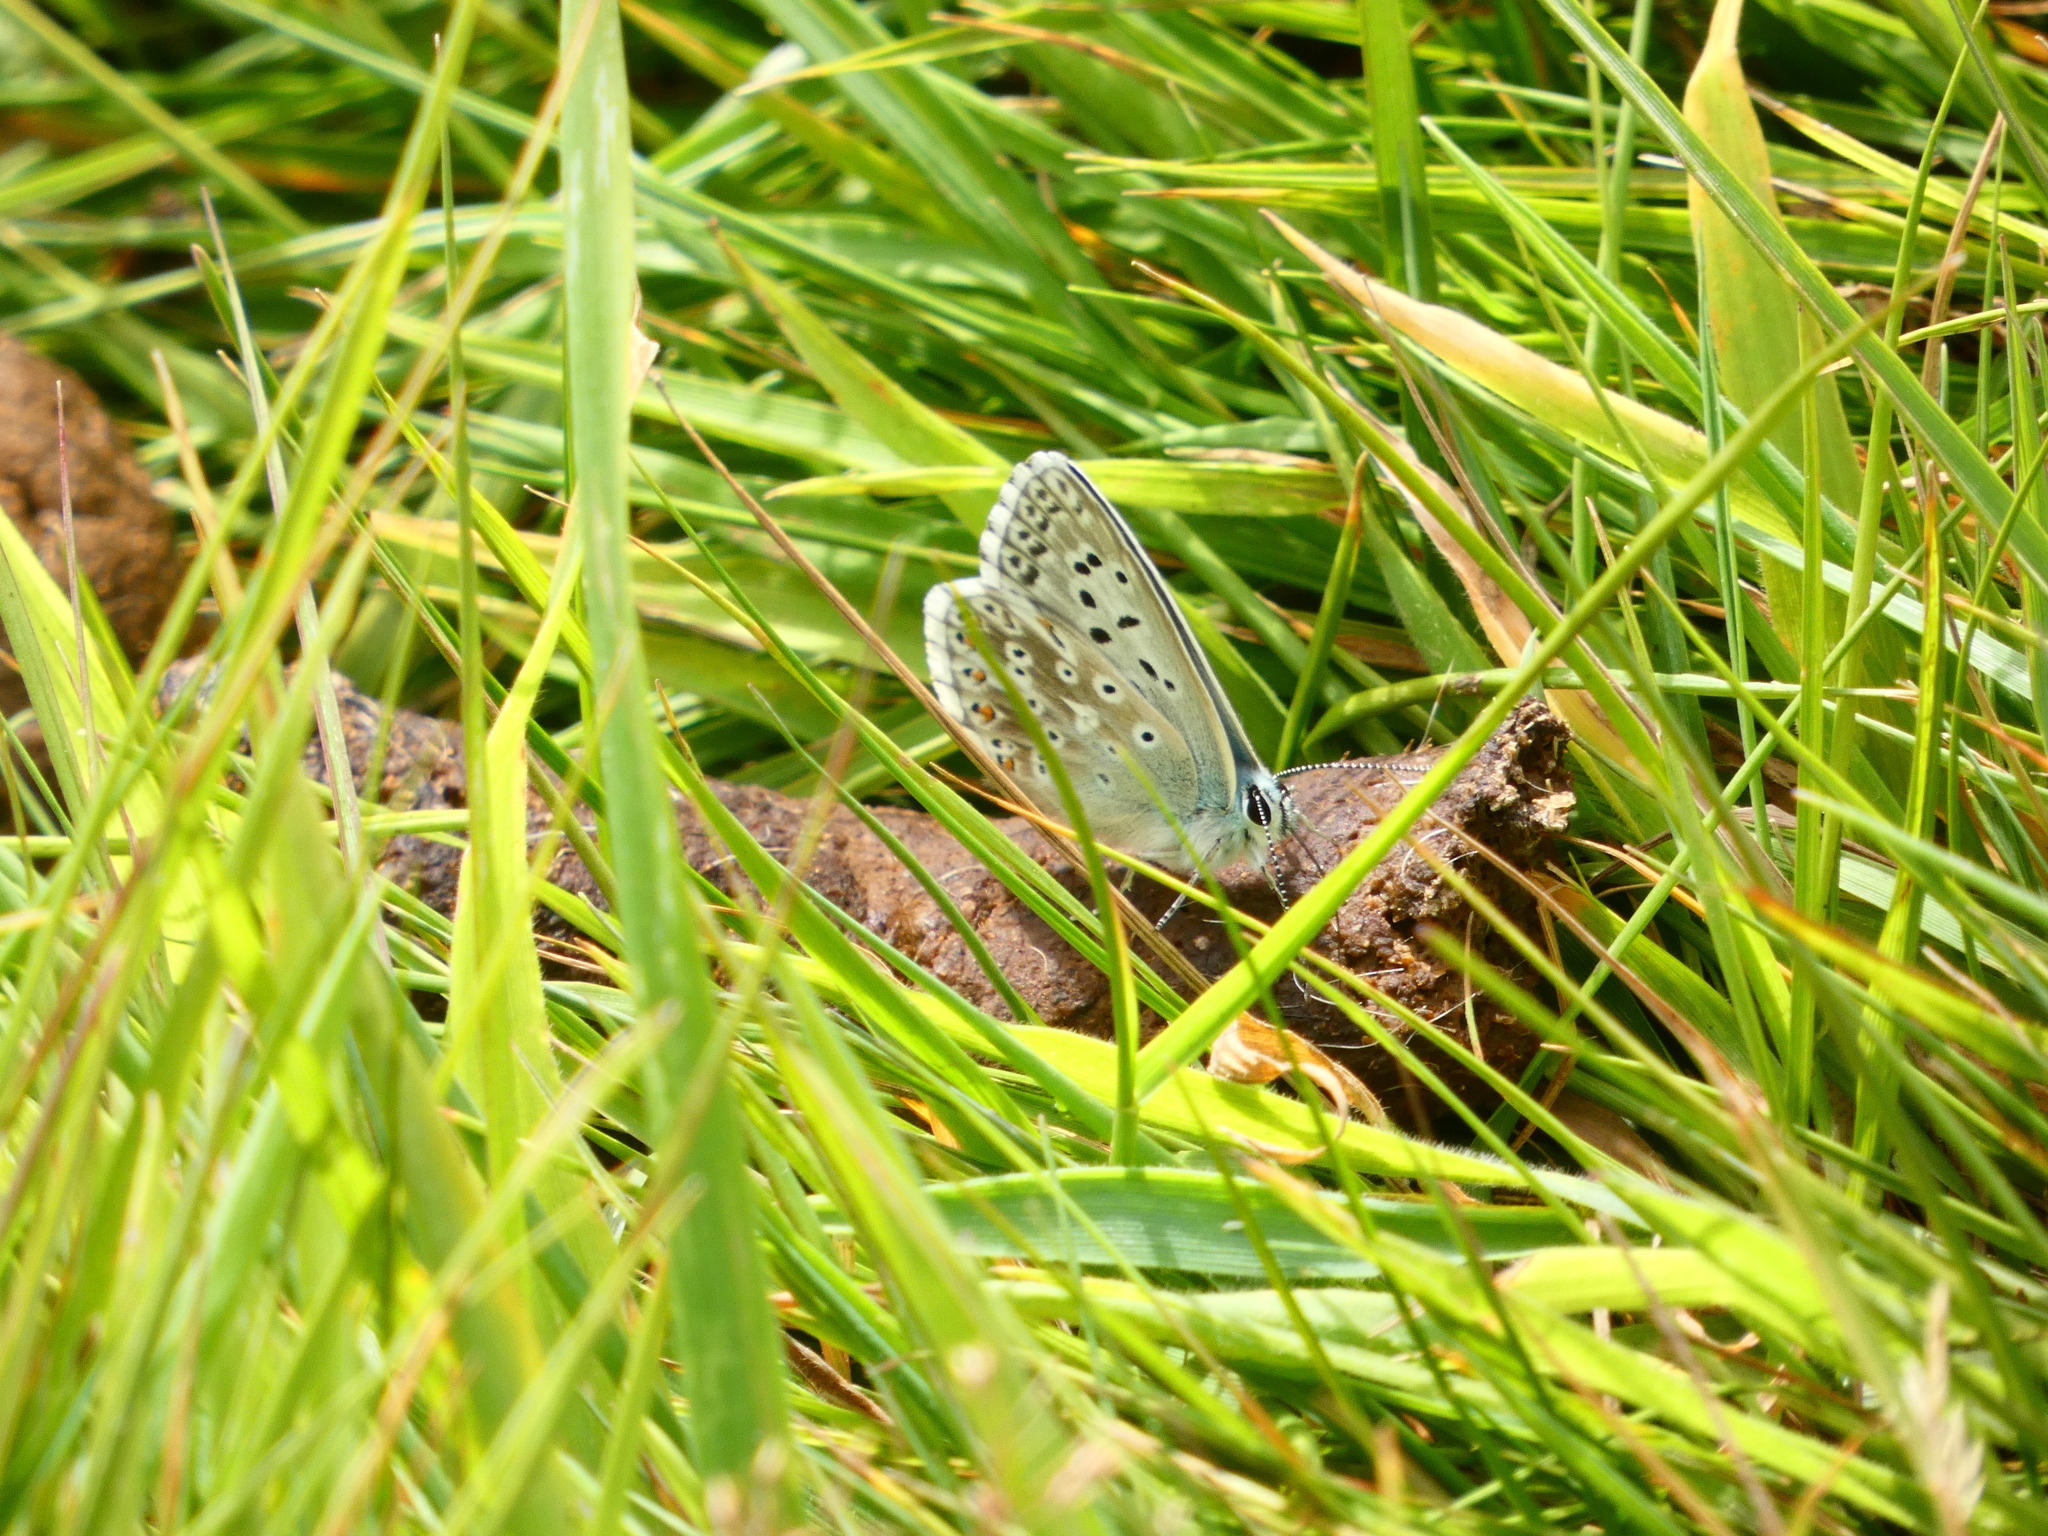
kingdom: Animalia
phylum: Arthropoda
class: Insecta
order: Lepidoptera
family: Lycaenidae
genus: Lysandra
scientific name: Lysandra coridon
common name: Chalkhill blue
